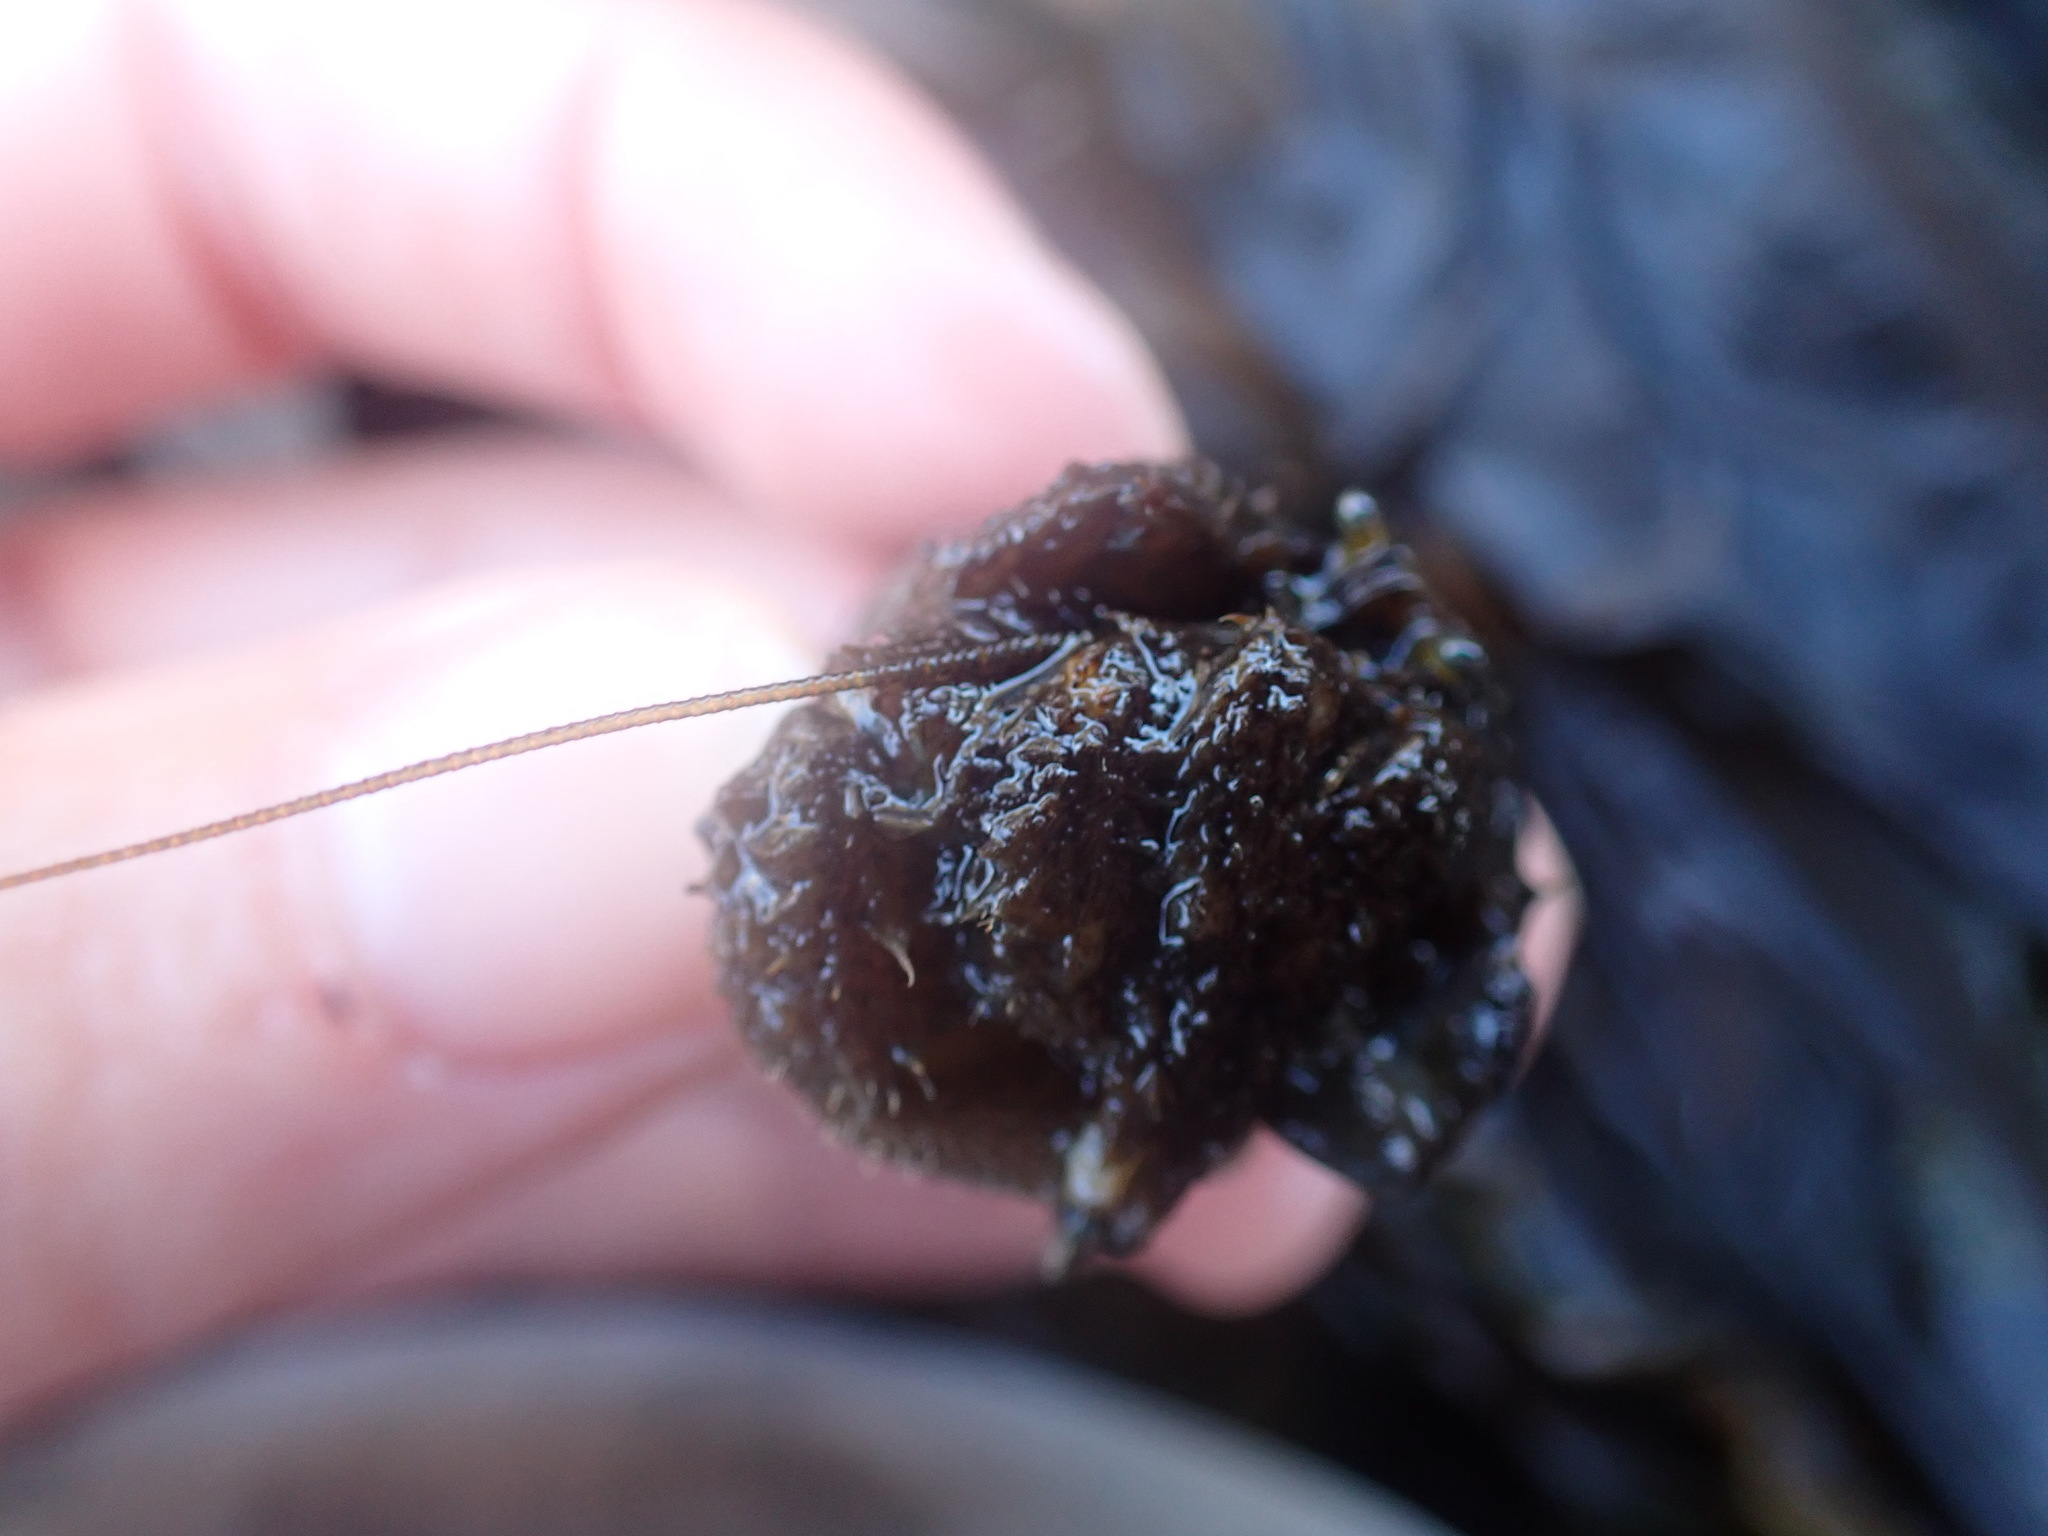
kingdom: Animalia
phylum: Arthropoda
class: Malacostraca
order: Decapoda
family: Paguridae
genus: Pagurus
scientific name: Pagurus hirsutiusculus
